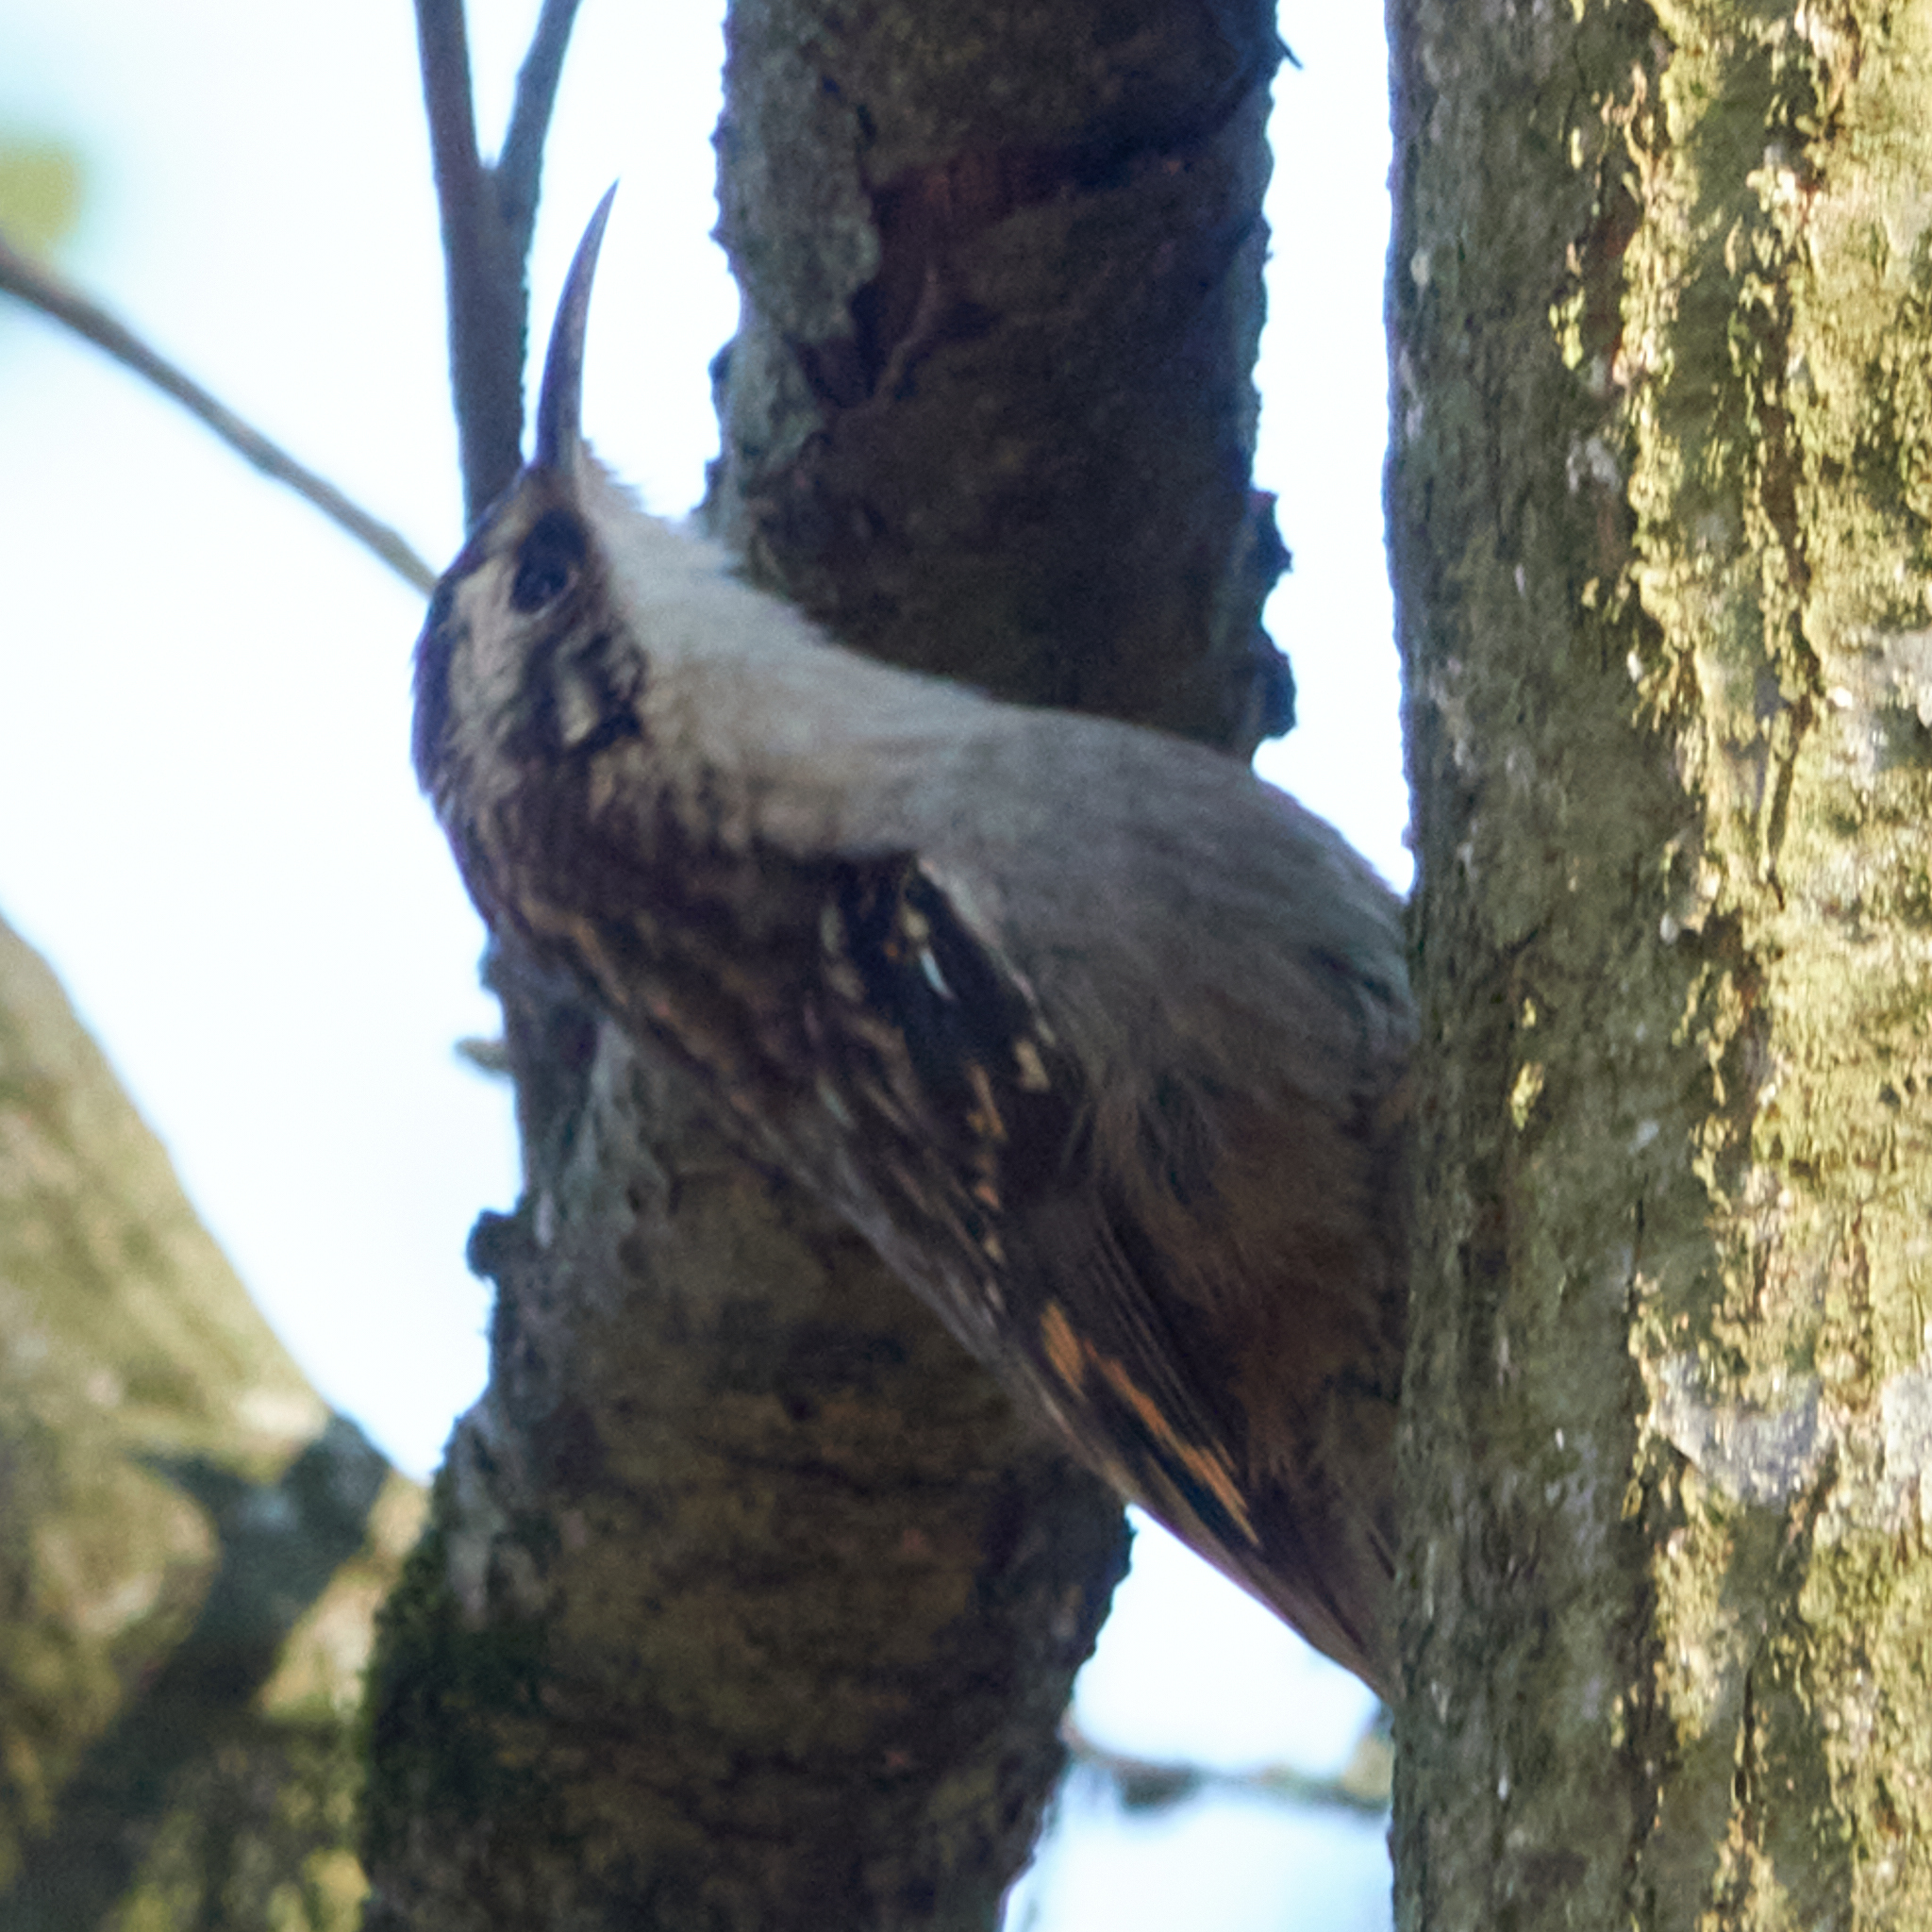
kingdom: Animalia
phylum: Chordata
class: Aves
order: Passeriformes
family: Certhiidae
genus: Certhia
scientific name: Certhia americana
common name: Brown creeper
